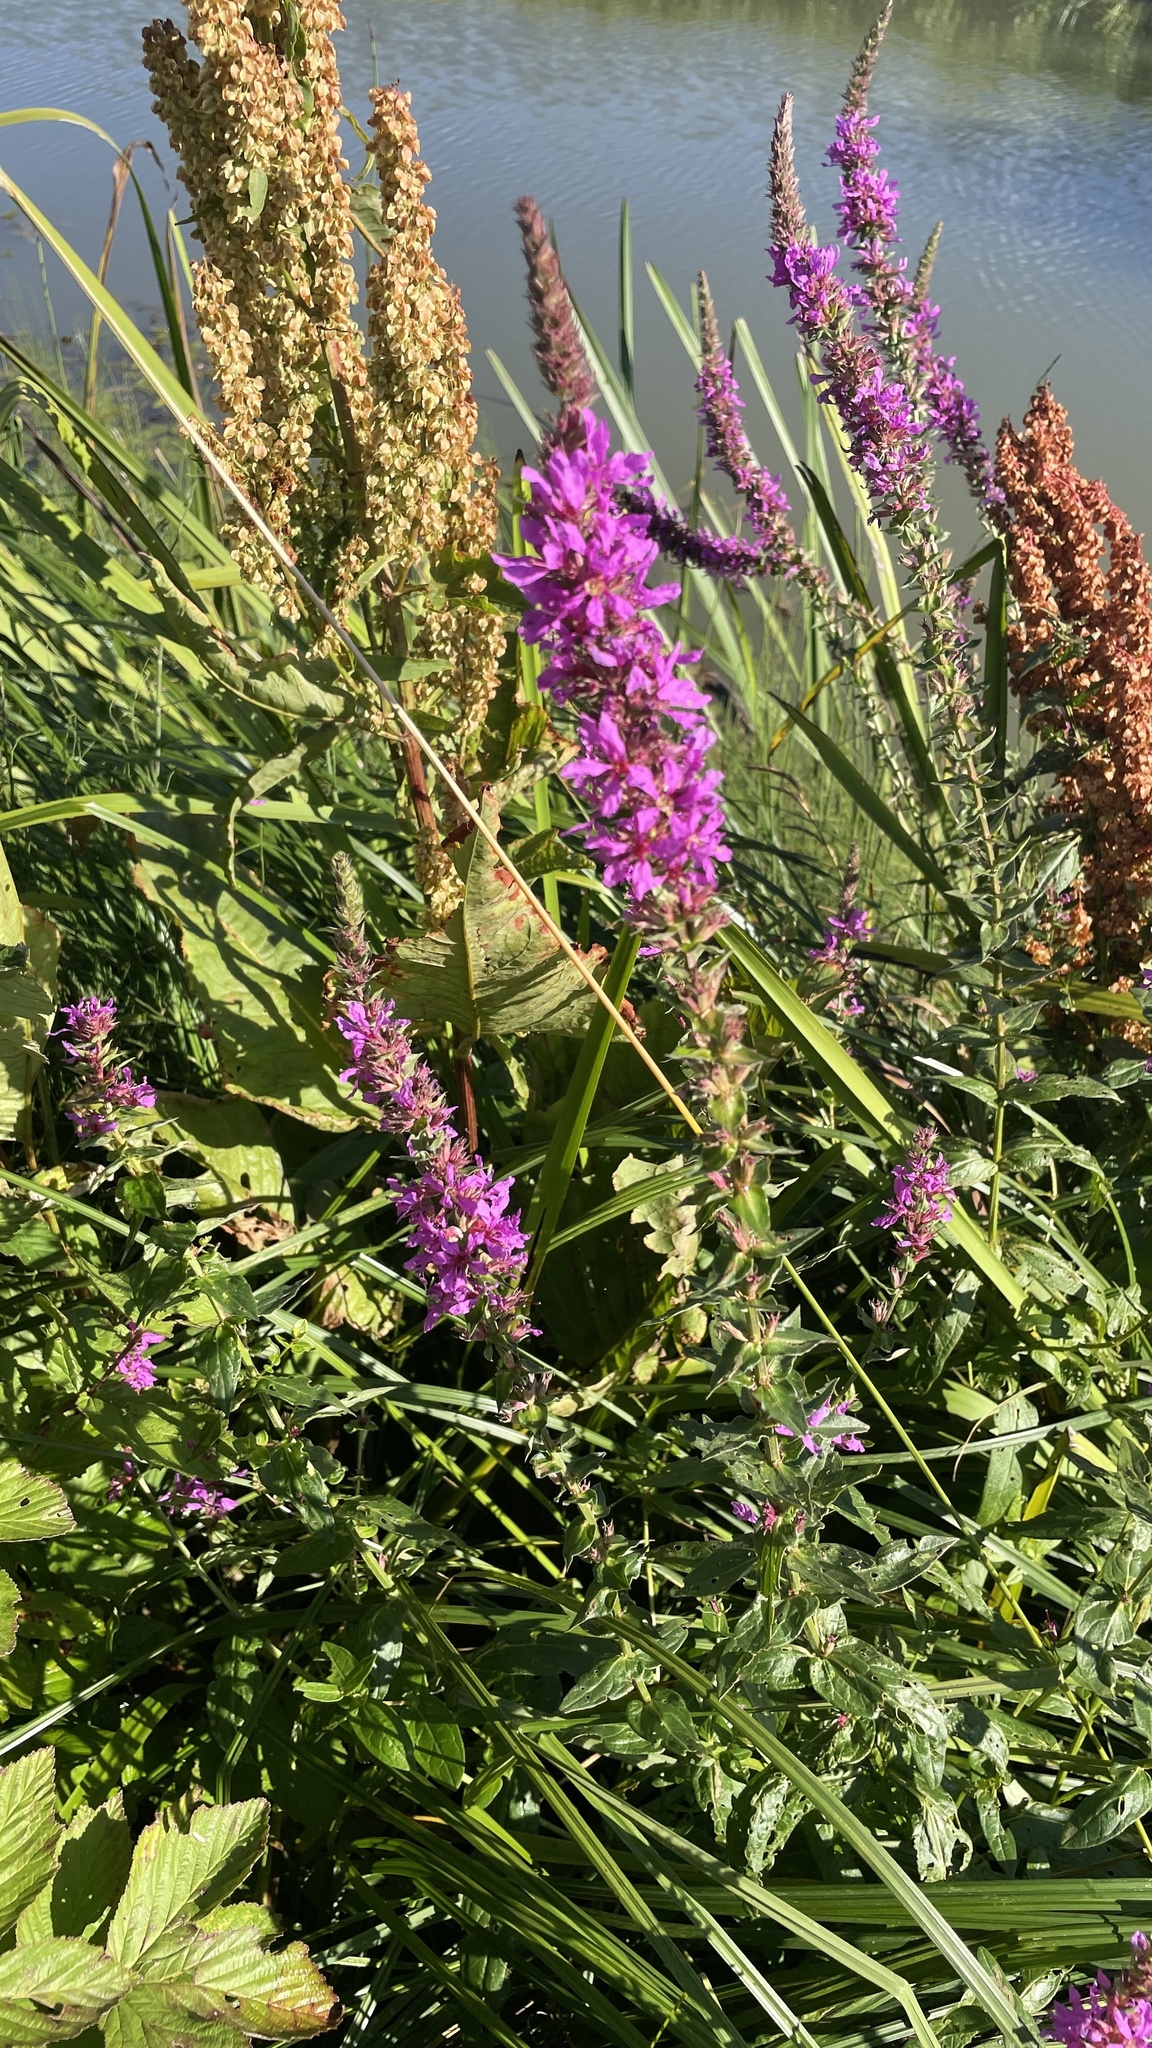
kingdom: Plantae
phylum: Tracheophyta
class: Magnoliopsida
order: Myrtales
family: Lythraceae
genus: Lythrum
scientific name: Lythrum salicaria
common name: Purple loosestrife
